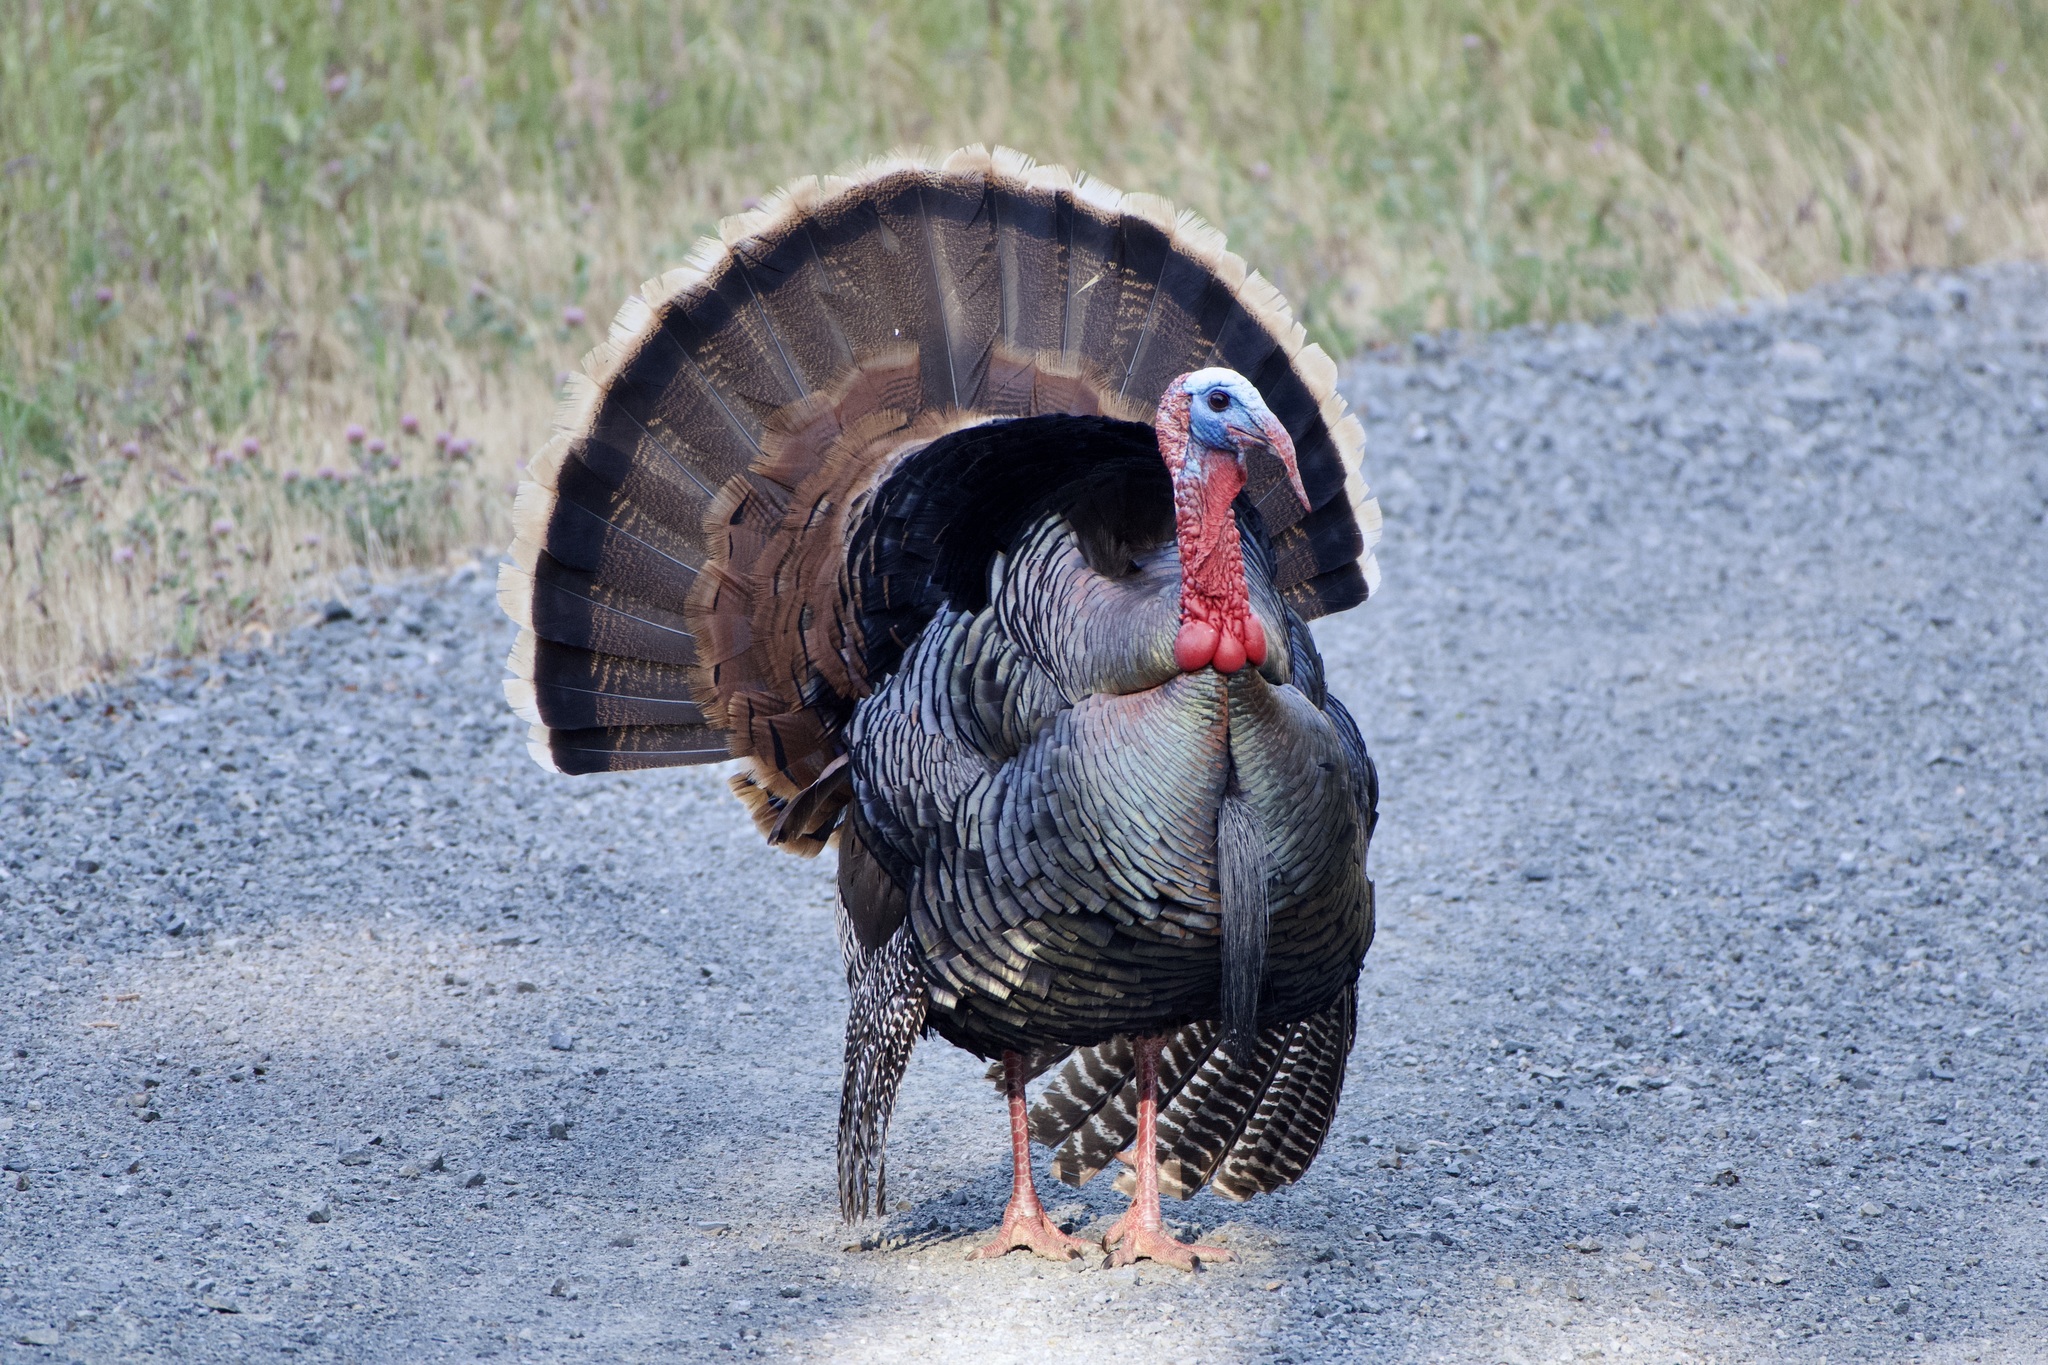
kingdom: Animalia
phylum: Chordata
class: Aves
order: Galliformes
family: Phasianidae
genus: Meleagris
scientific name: Meleagris gallopavo
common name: Wild turkey
